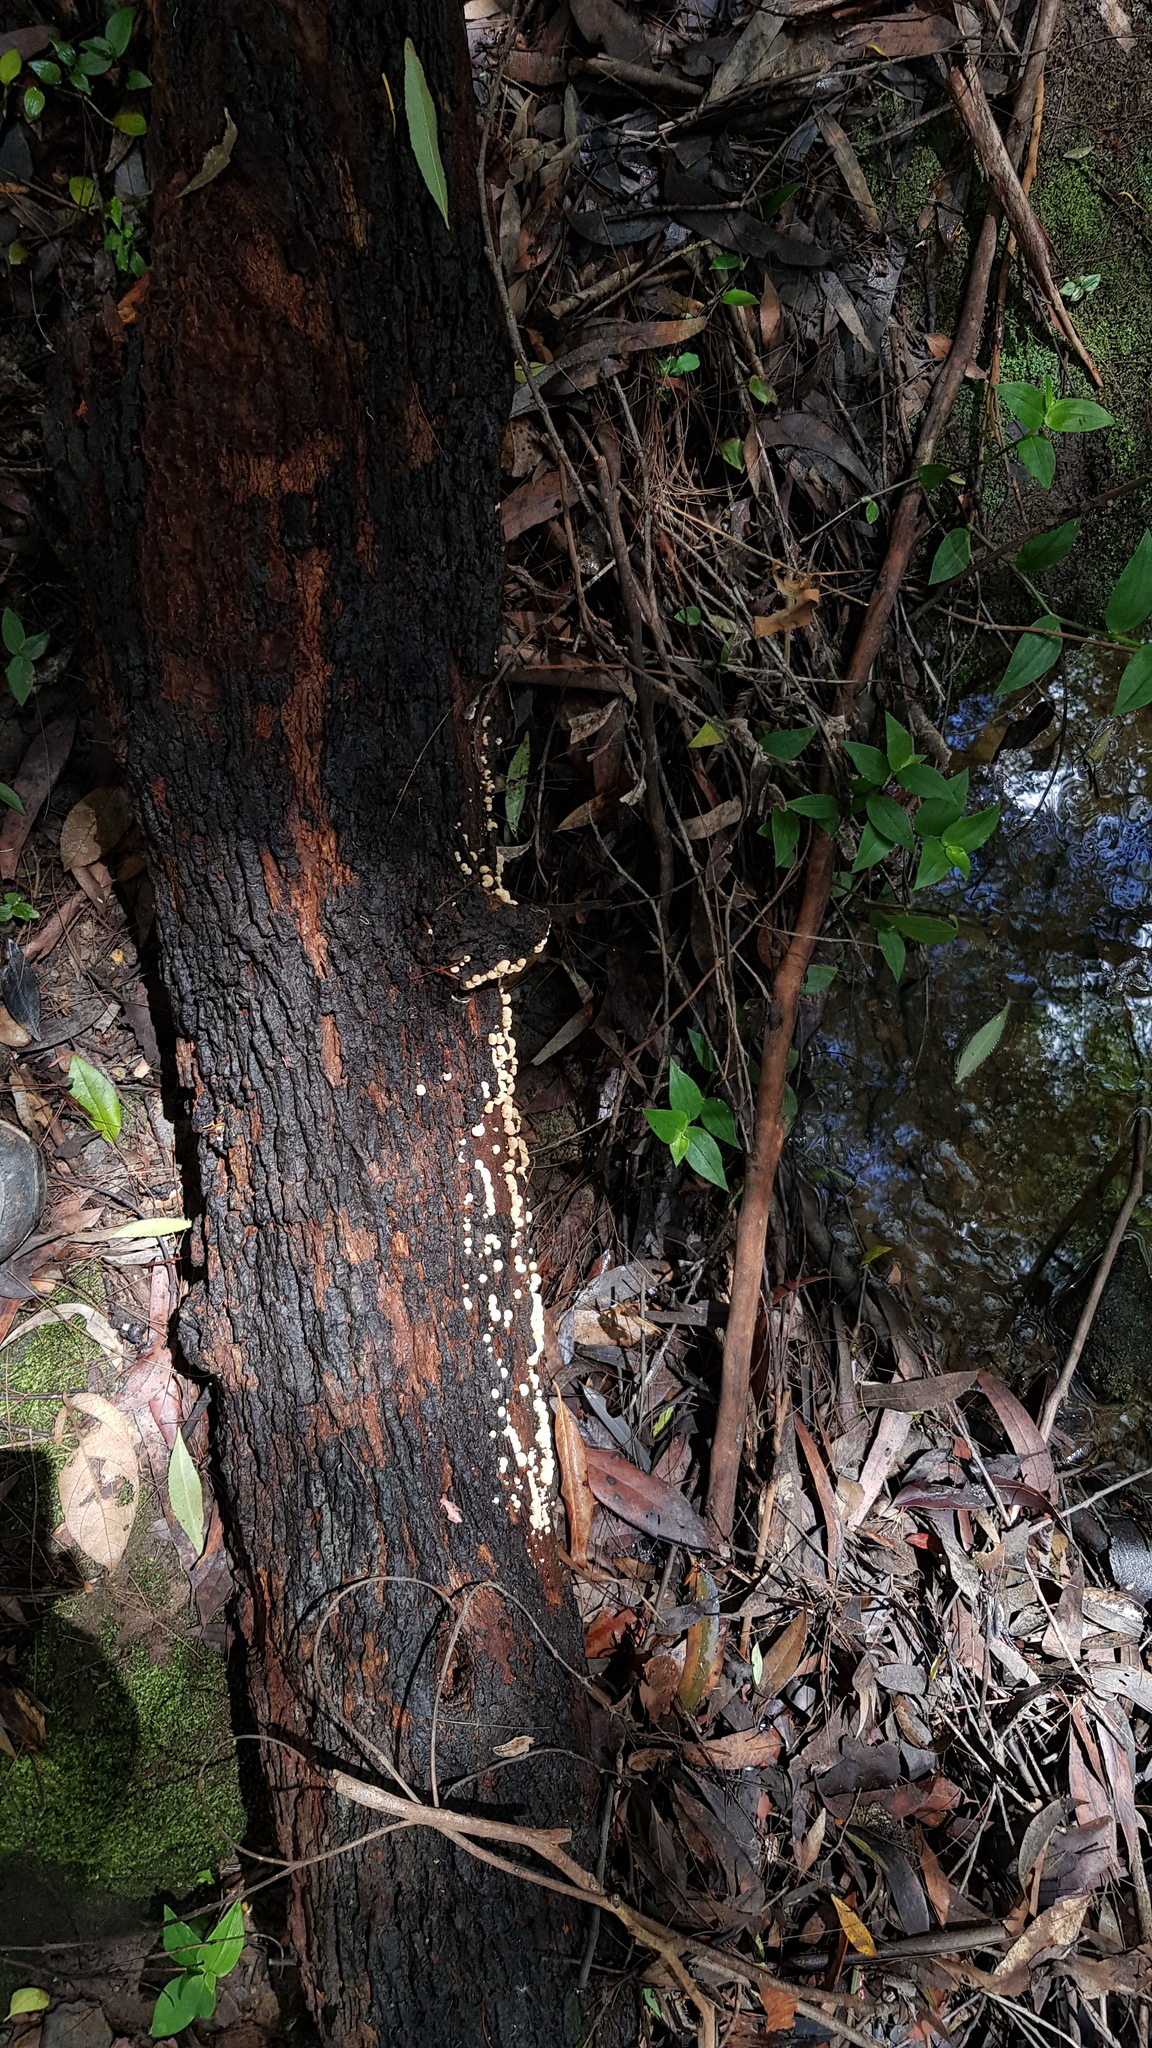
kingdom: Fungi
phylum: Basidiomycota
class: Agaricomycetes
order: Agaricales
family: Mycenaceae
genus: Panellus
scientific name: Panellus luxfilamentus
